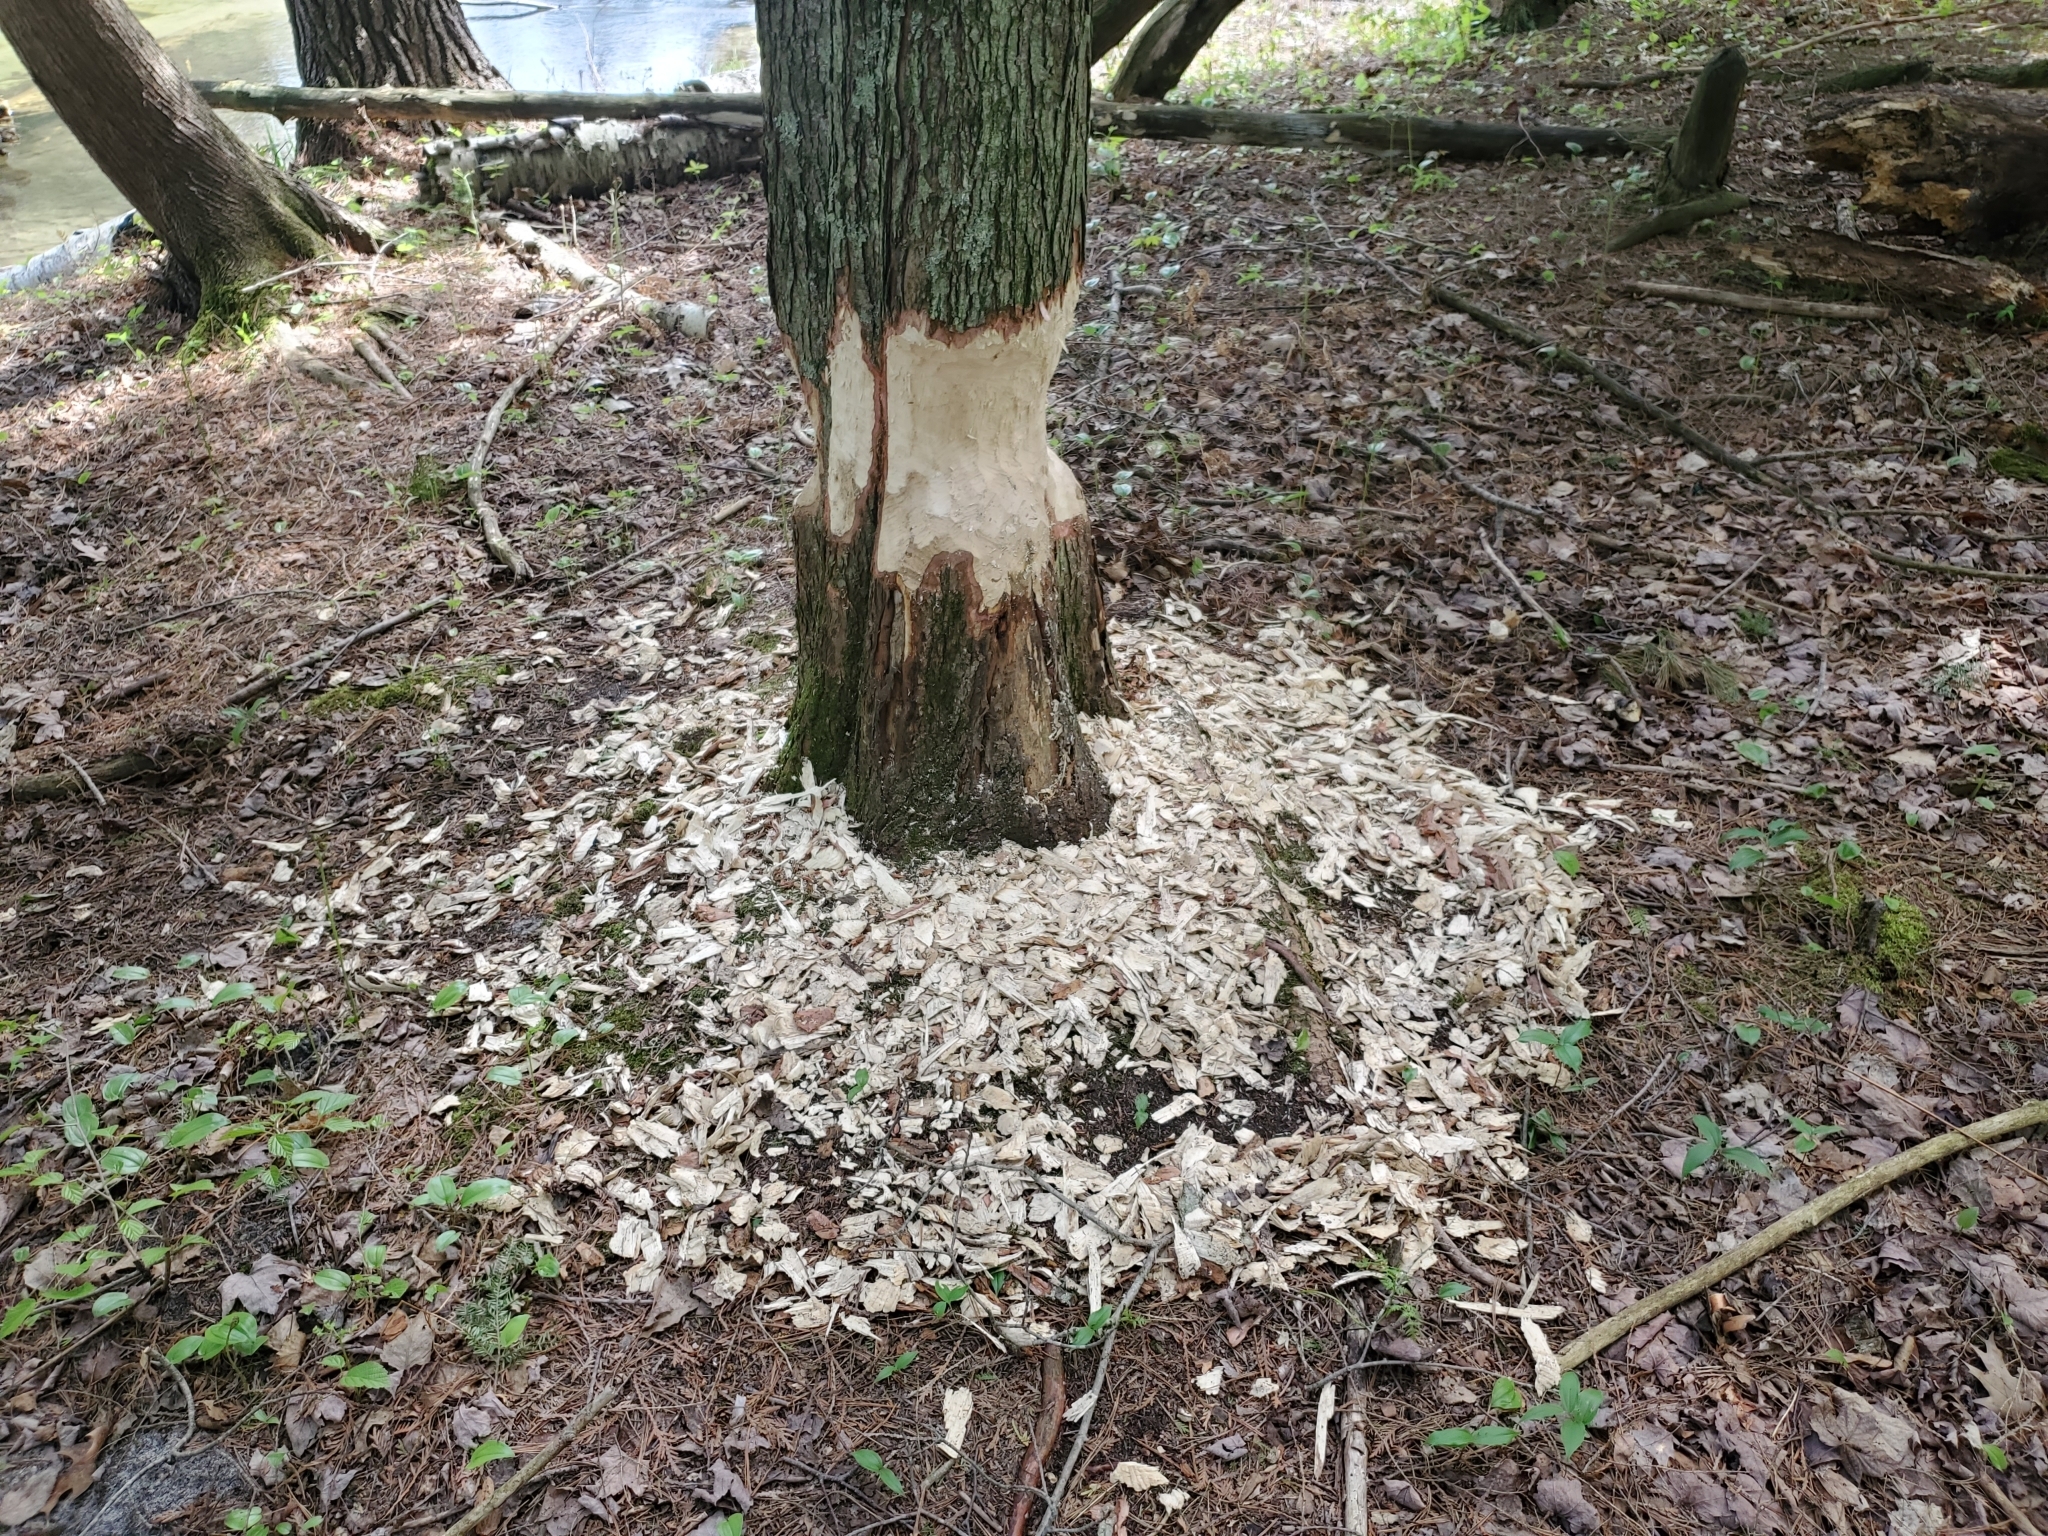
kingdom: Animalia
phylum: Chordata
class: Mammalia
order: Rodentia
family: Castoridae
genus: Castor
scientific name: Castor canadensis
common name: American beaver
